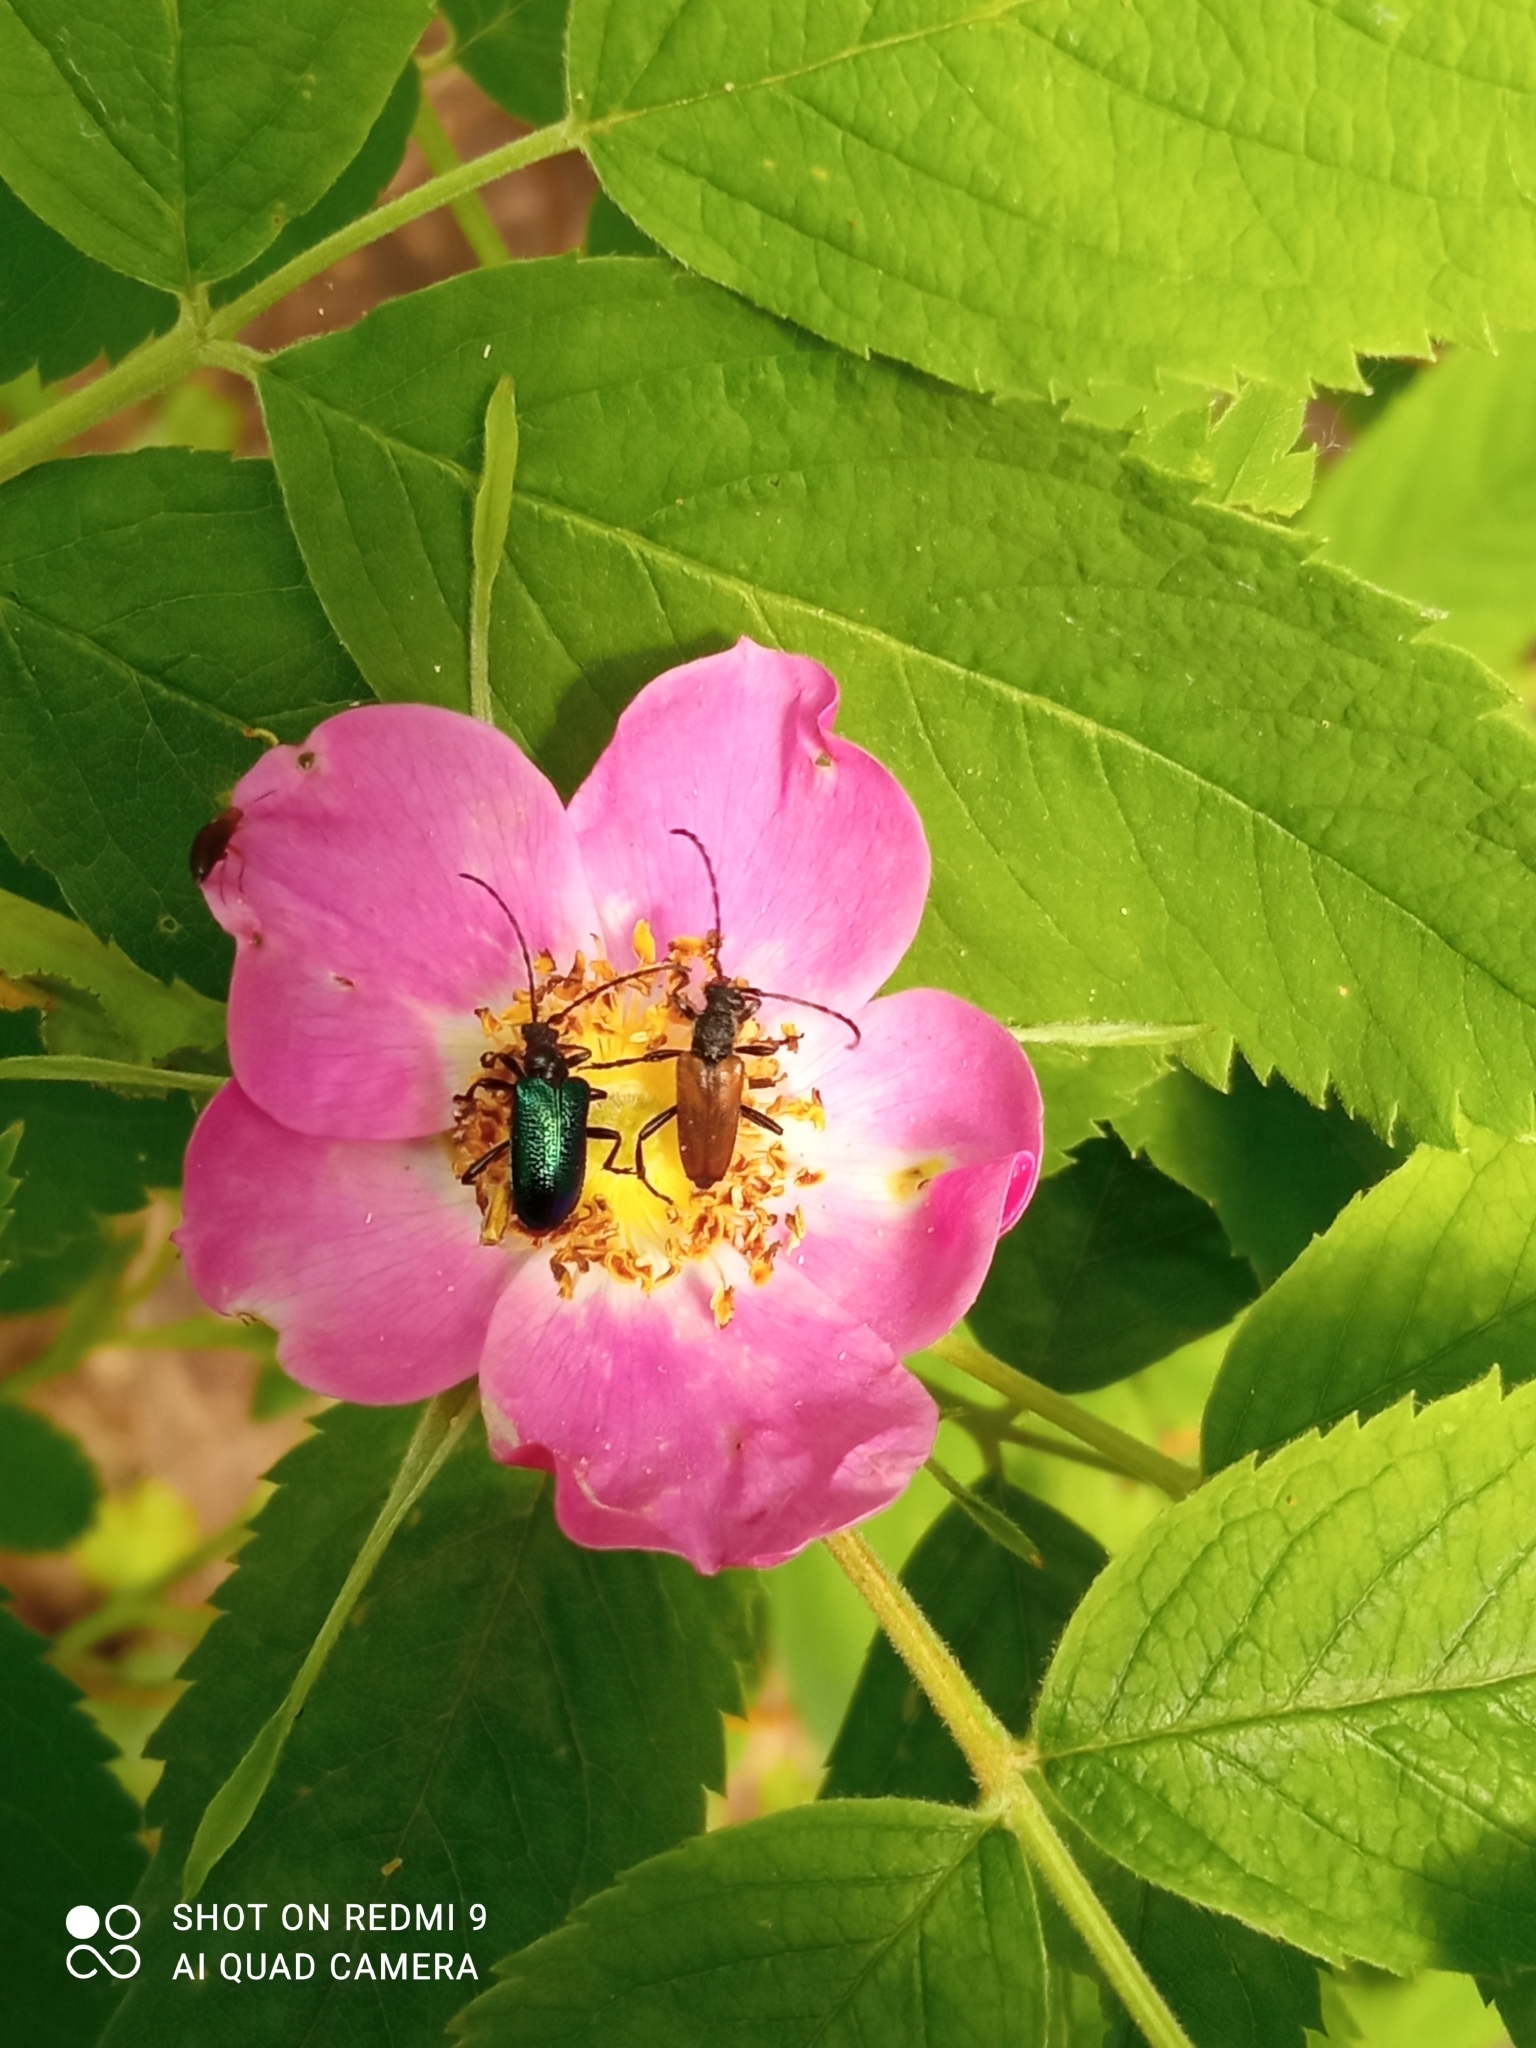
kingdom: Animalia
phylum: Arthropoda
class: Insecta
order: Coleoptera
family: Cerambycidae
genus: Gaurotes
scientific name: Gaurotes virginea
